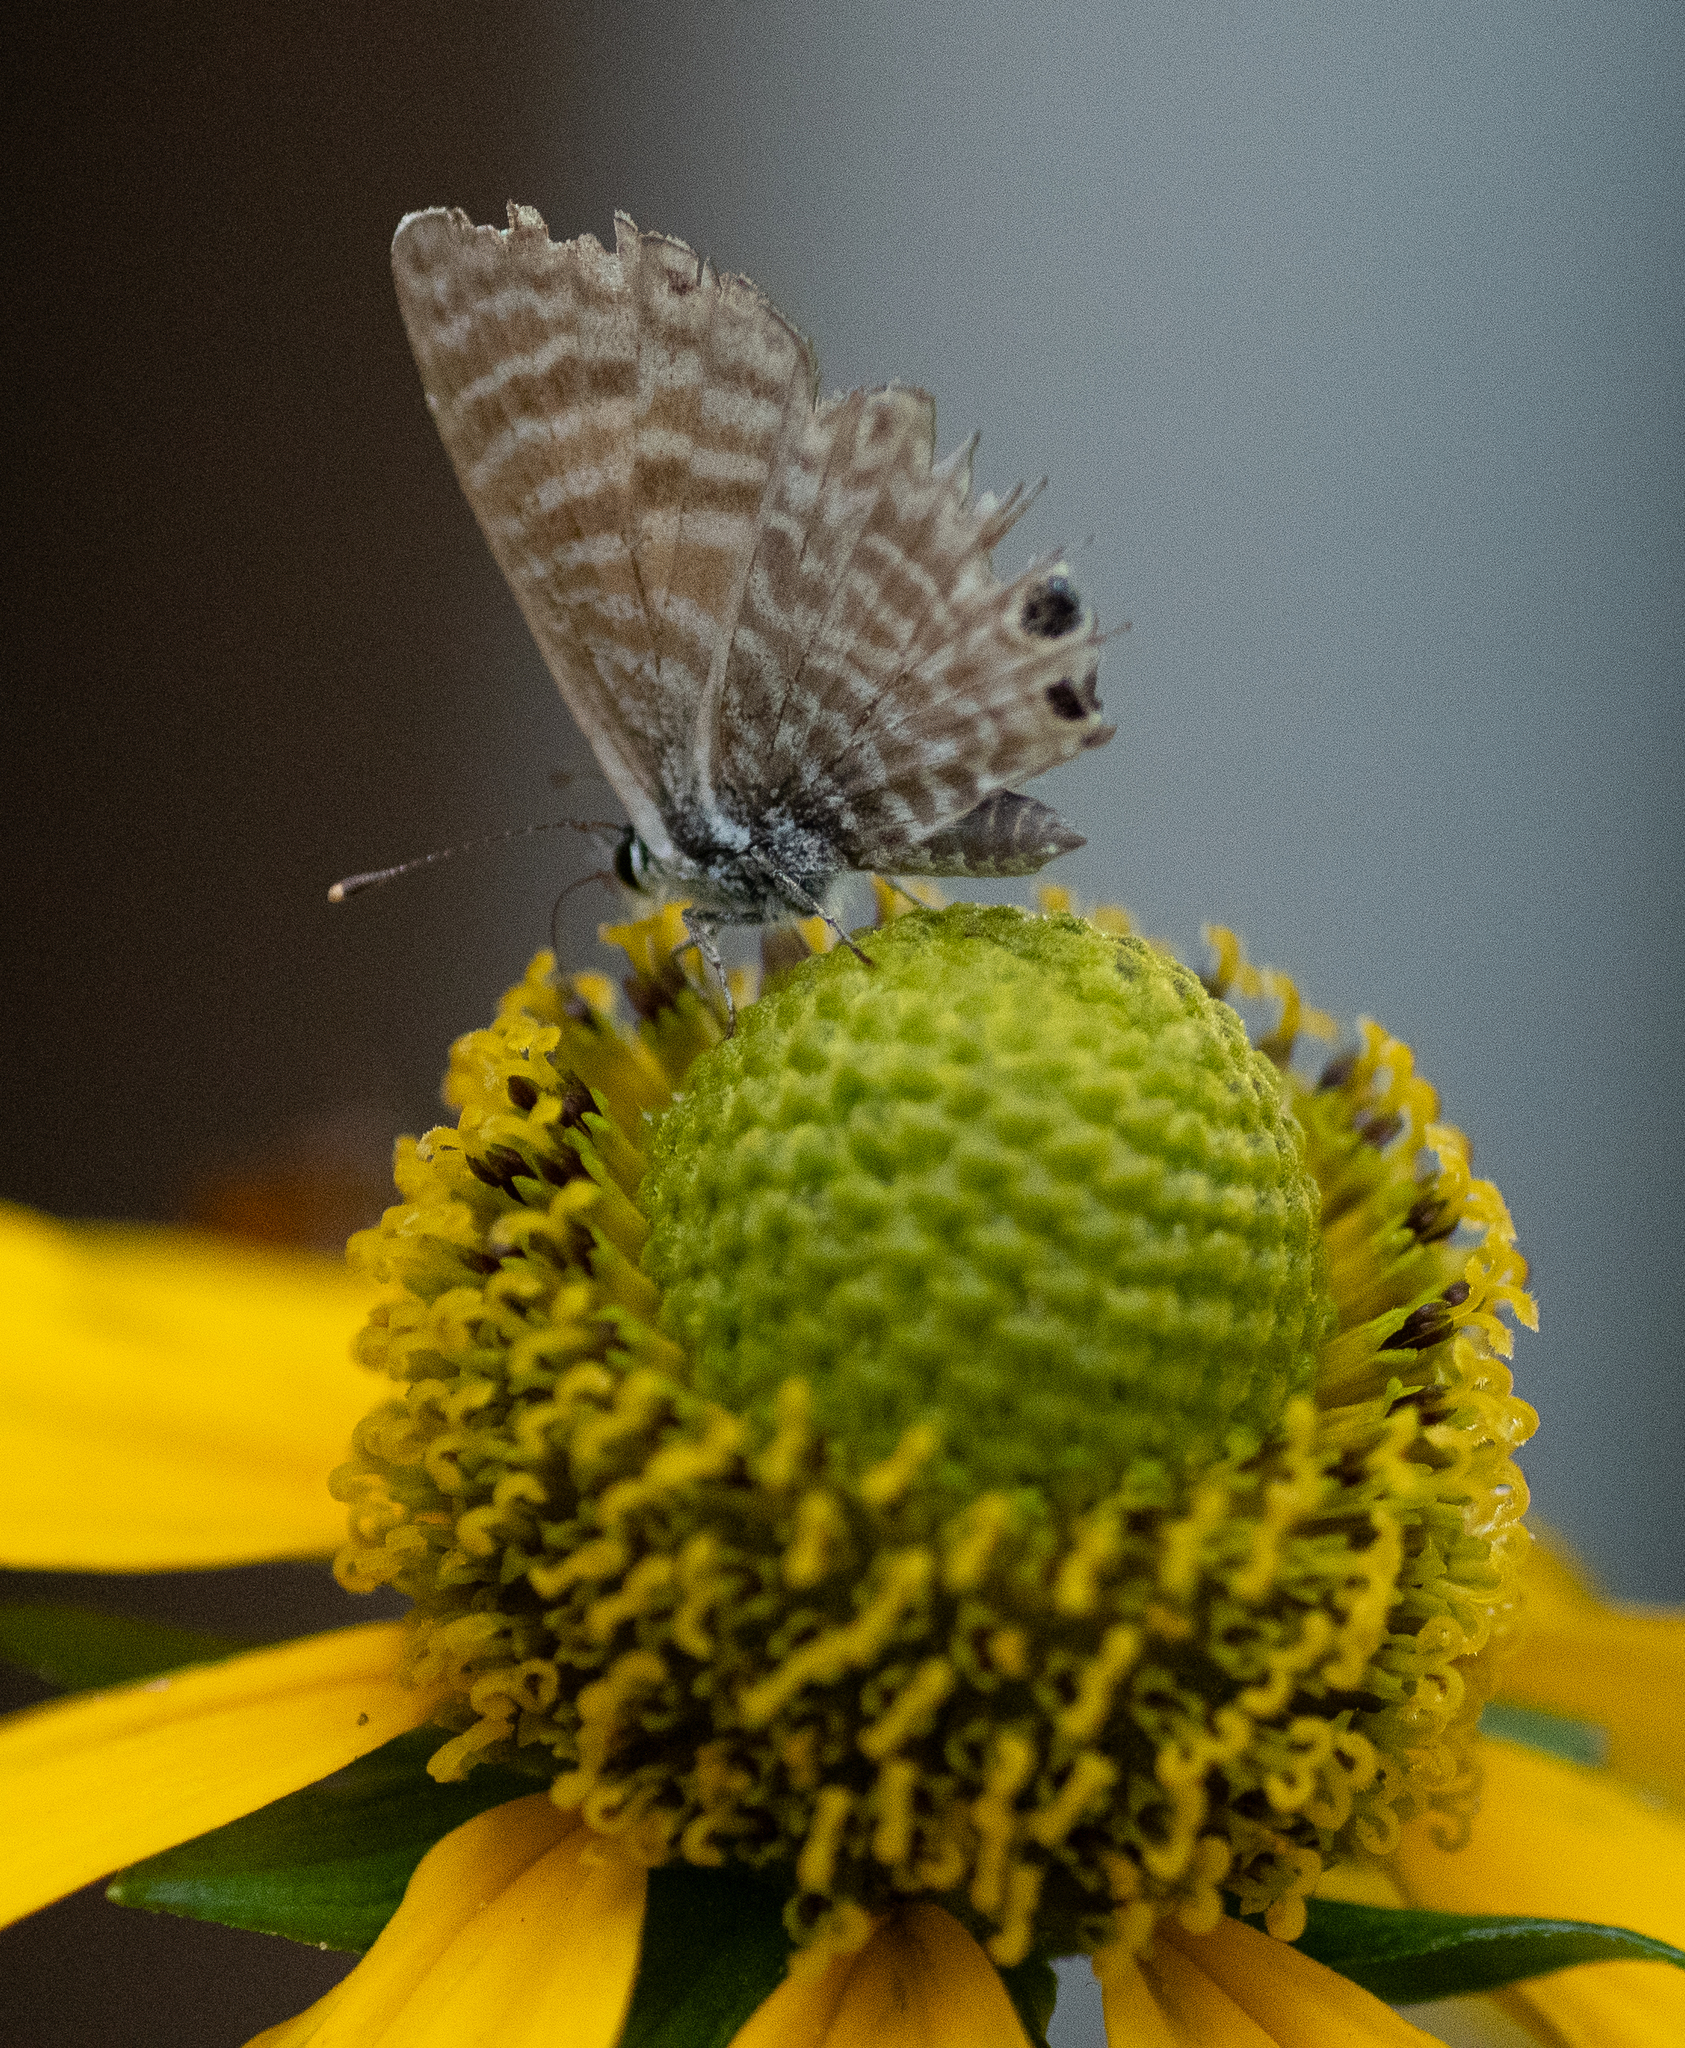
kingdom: Animalia
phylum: Arthropoda
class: Insecta
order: Lepidoptera
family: Lycaenidae
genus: Leptotes
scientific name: Leptotes marina
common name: Marine blue
